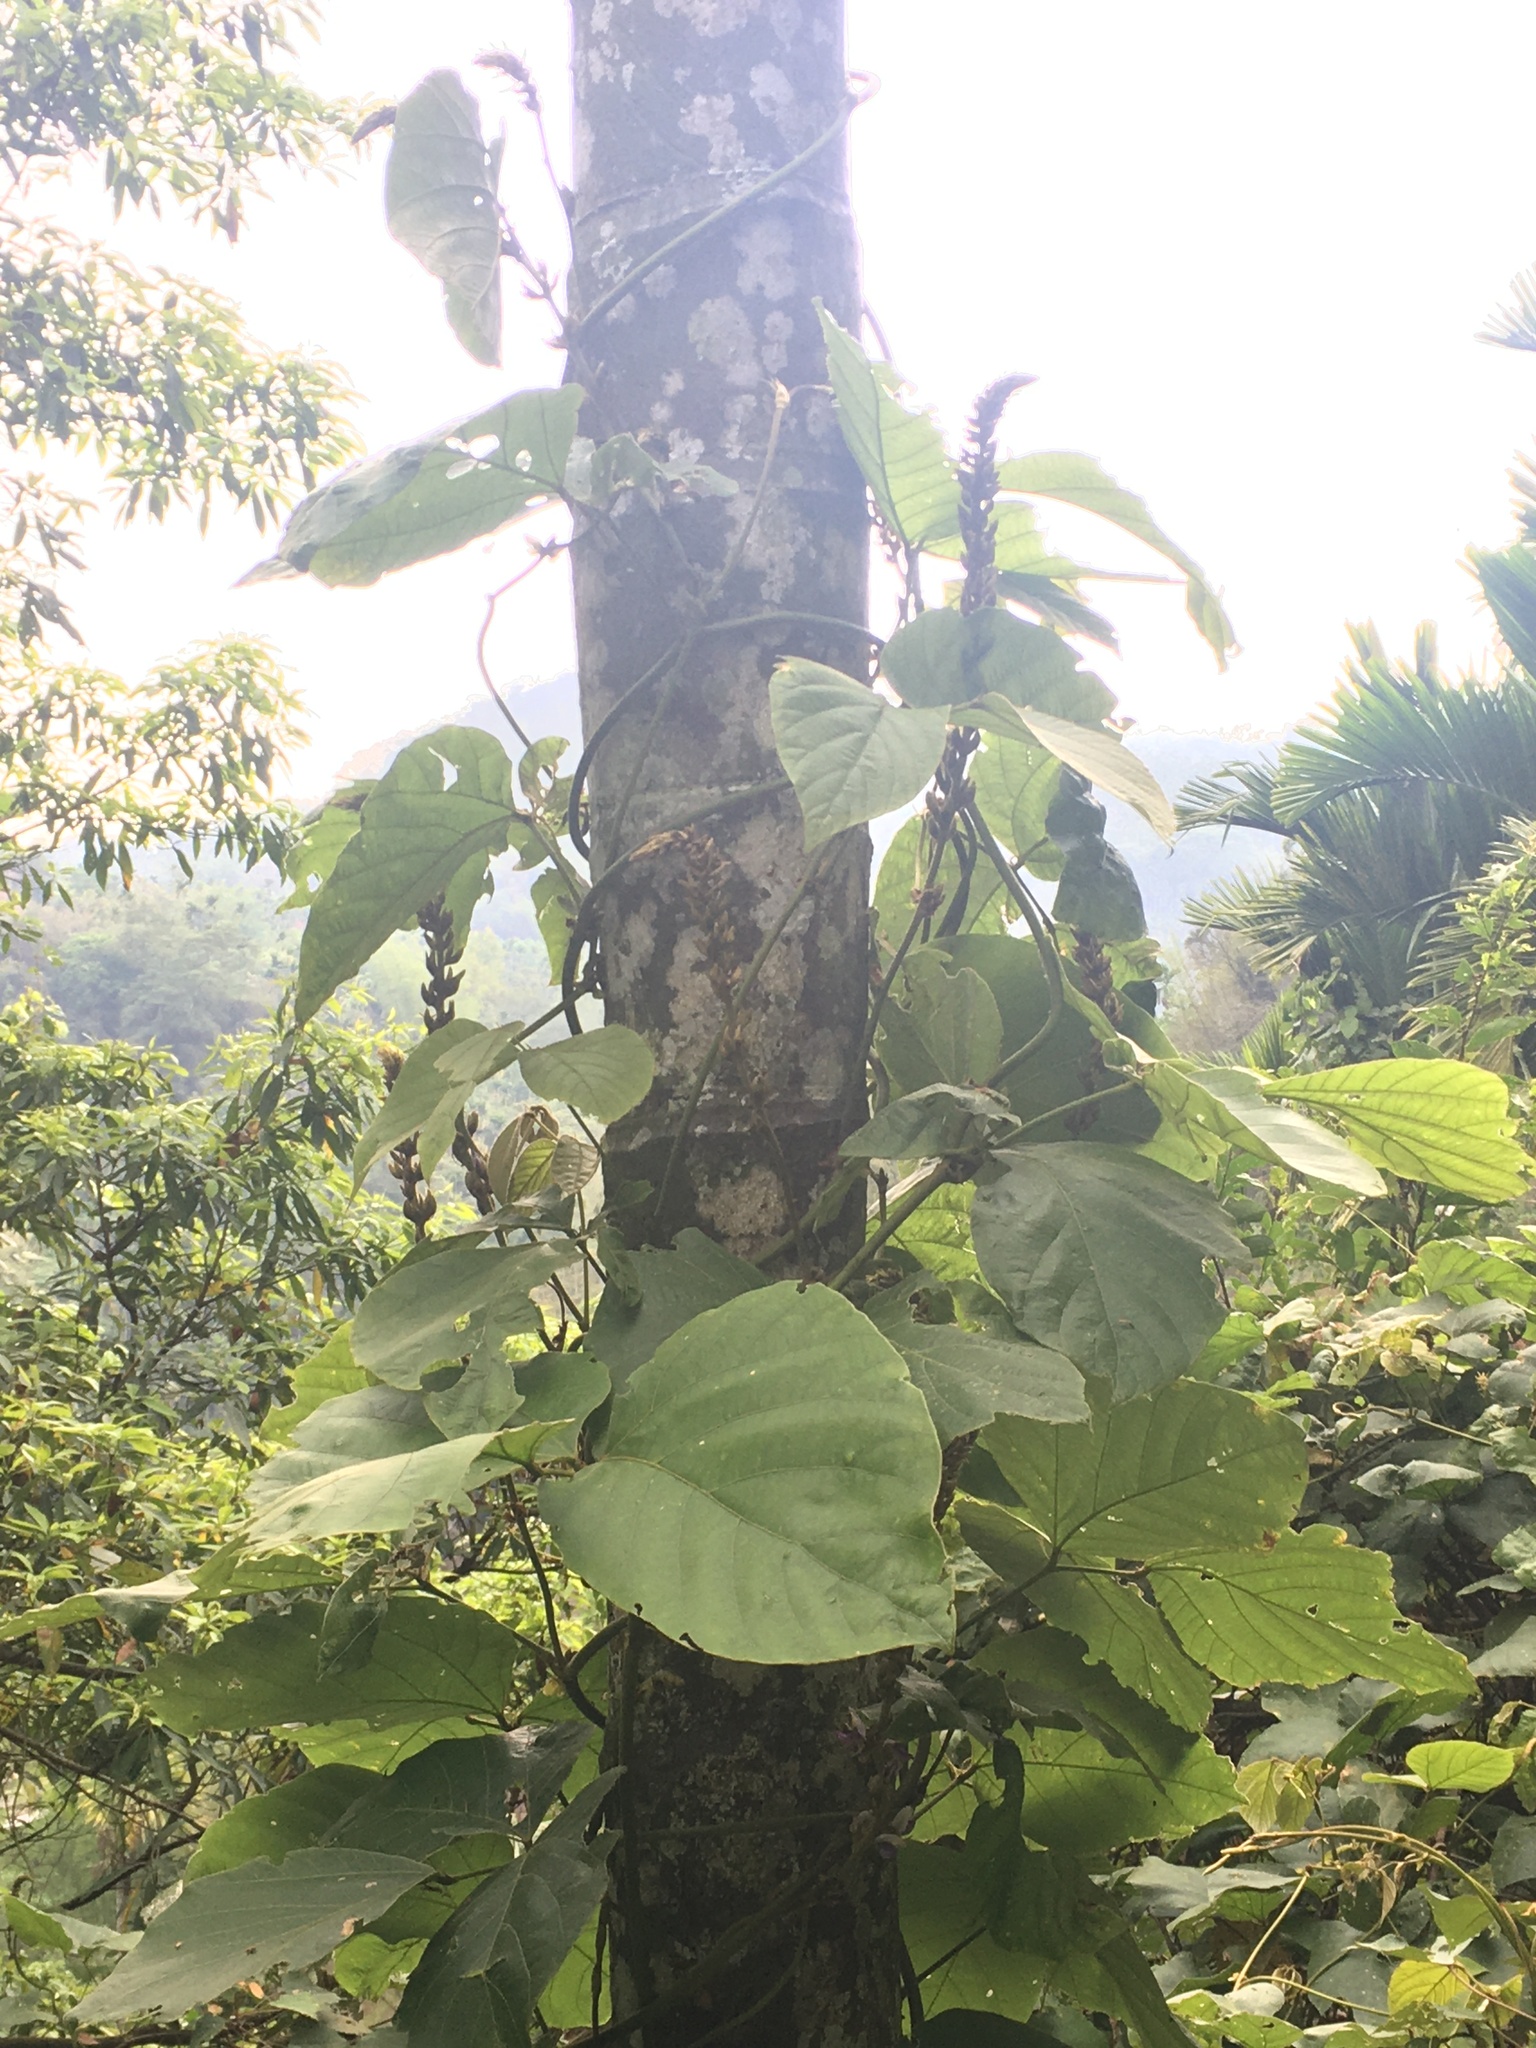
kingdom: Plantae
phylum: Tracheophyta
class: Magnoliopsida
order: Fabales
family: Fabaceae
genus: Pueraria
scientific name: Pueraria montana
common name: Kudzu
